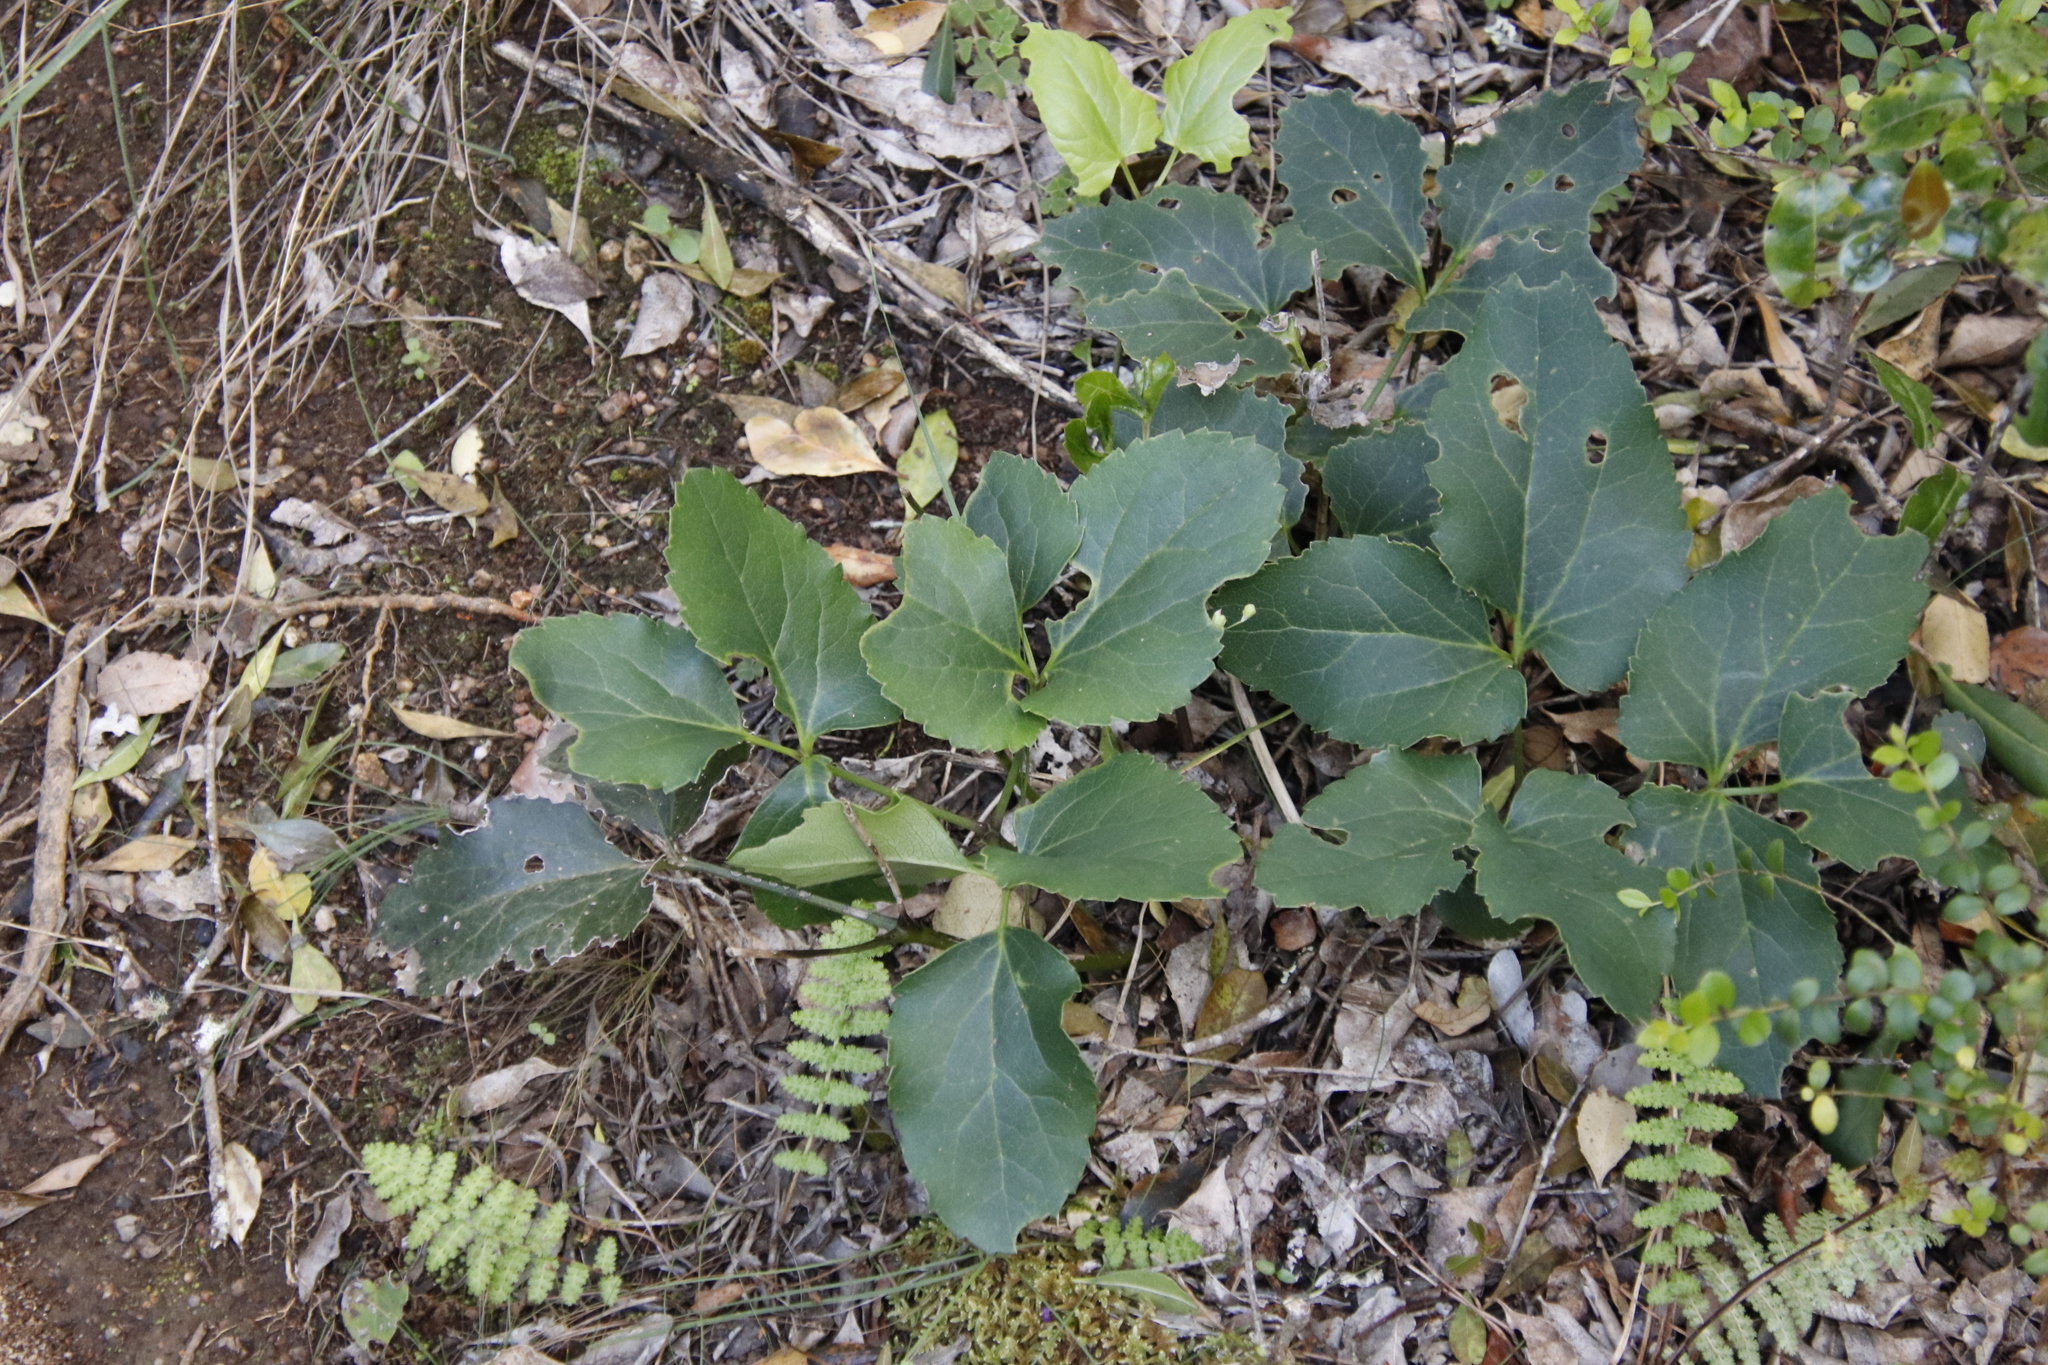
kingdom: Plantae
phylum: Tracheophyta
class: Magnoliopsida
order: Ranunculales
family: Ranunculaceae
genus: Knowltonia
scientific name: Knowltonia vesicatoria
